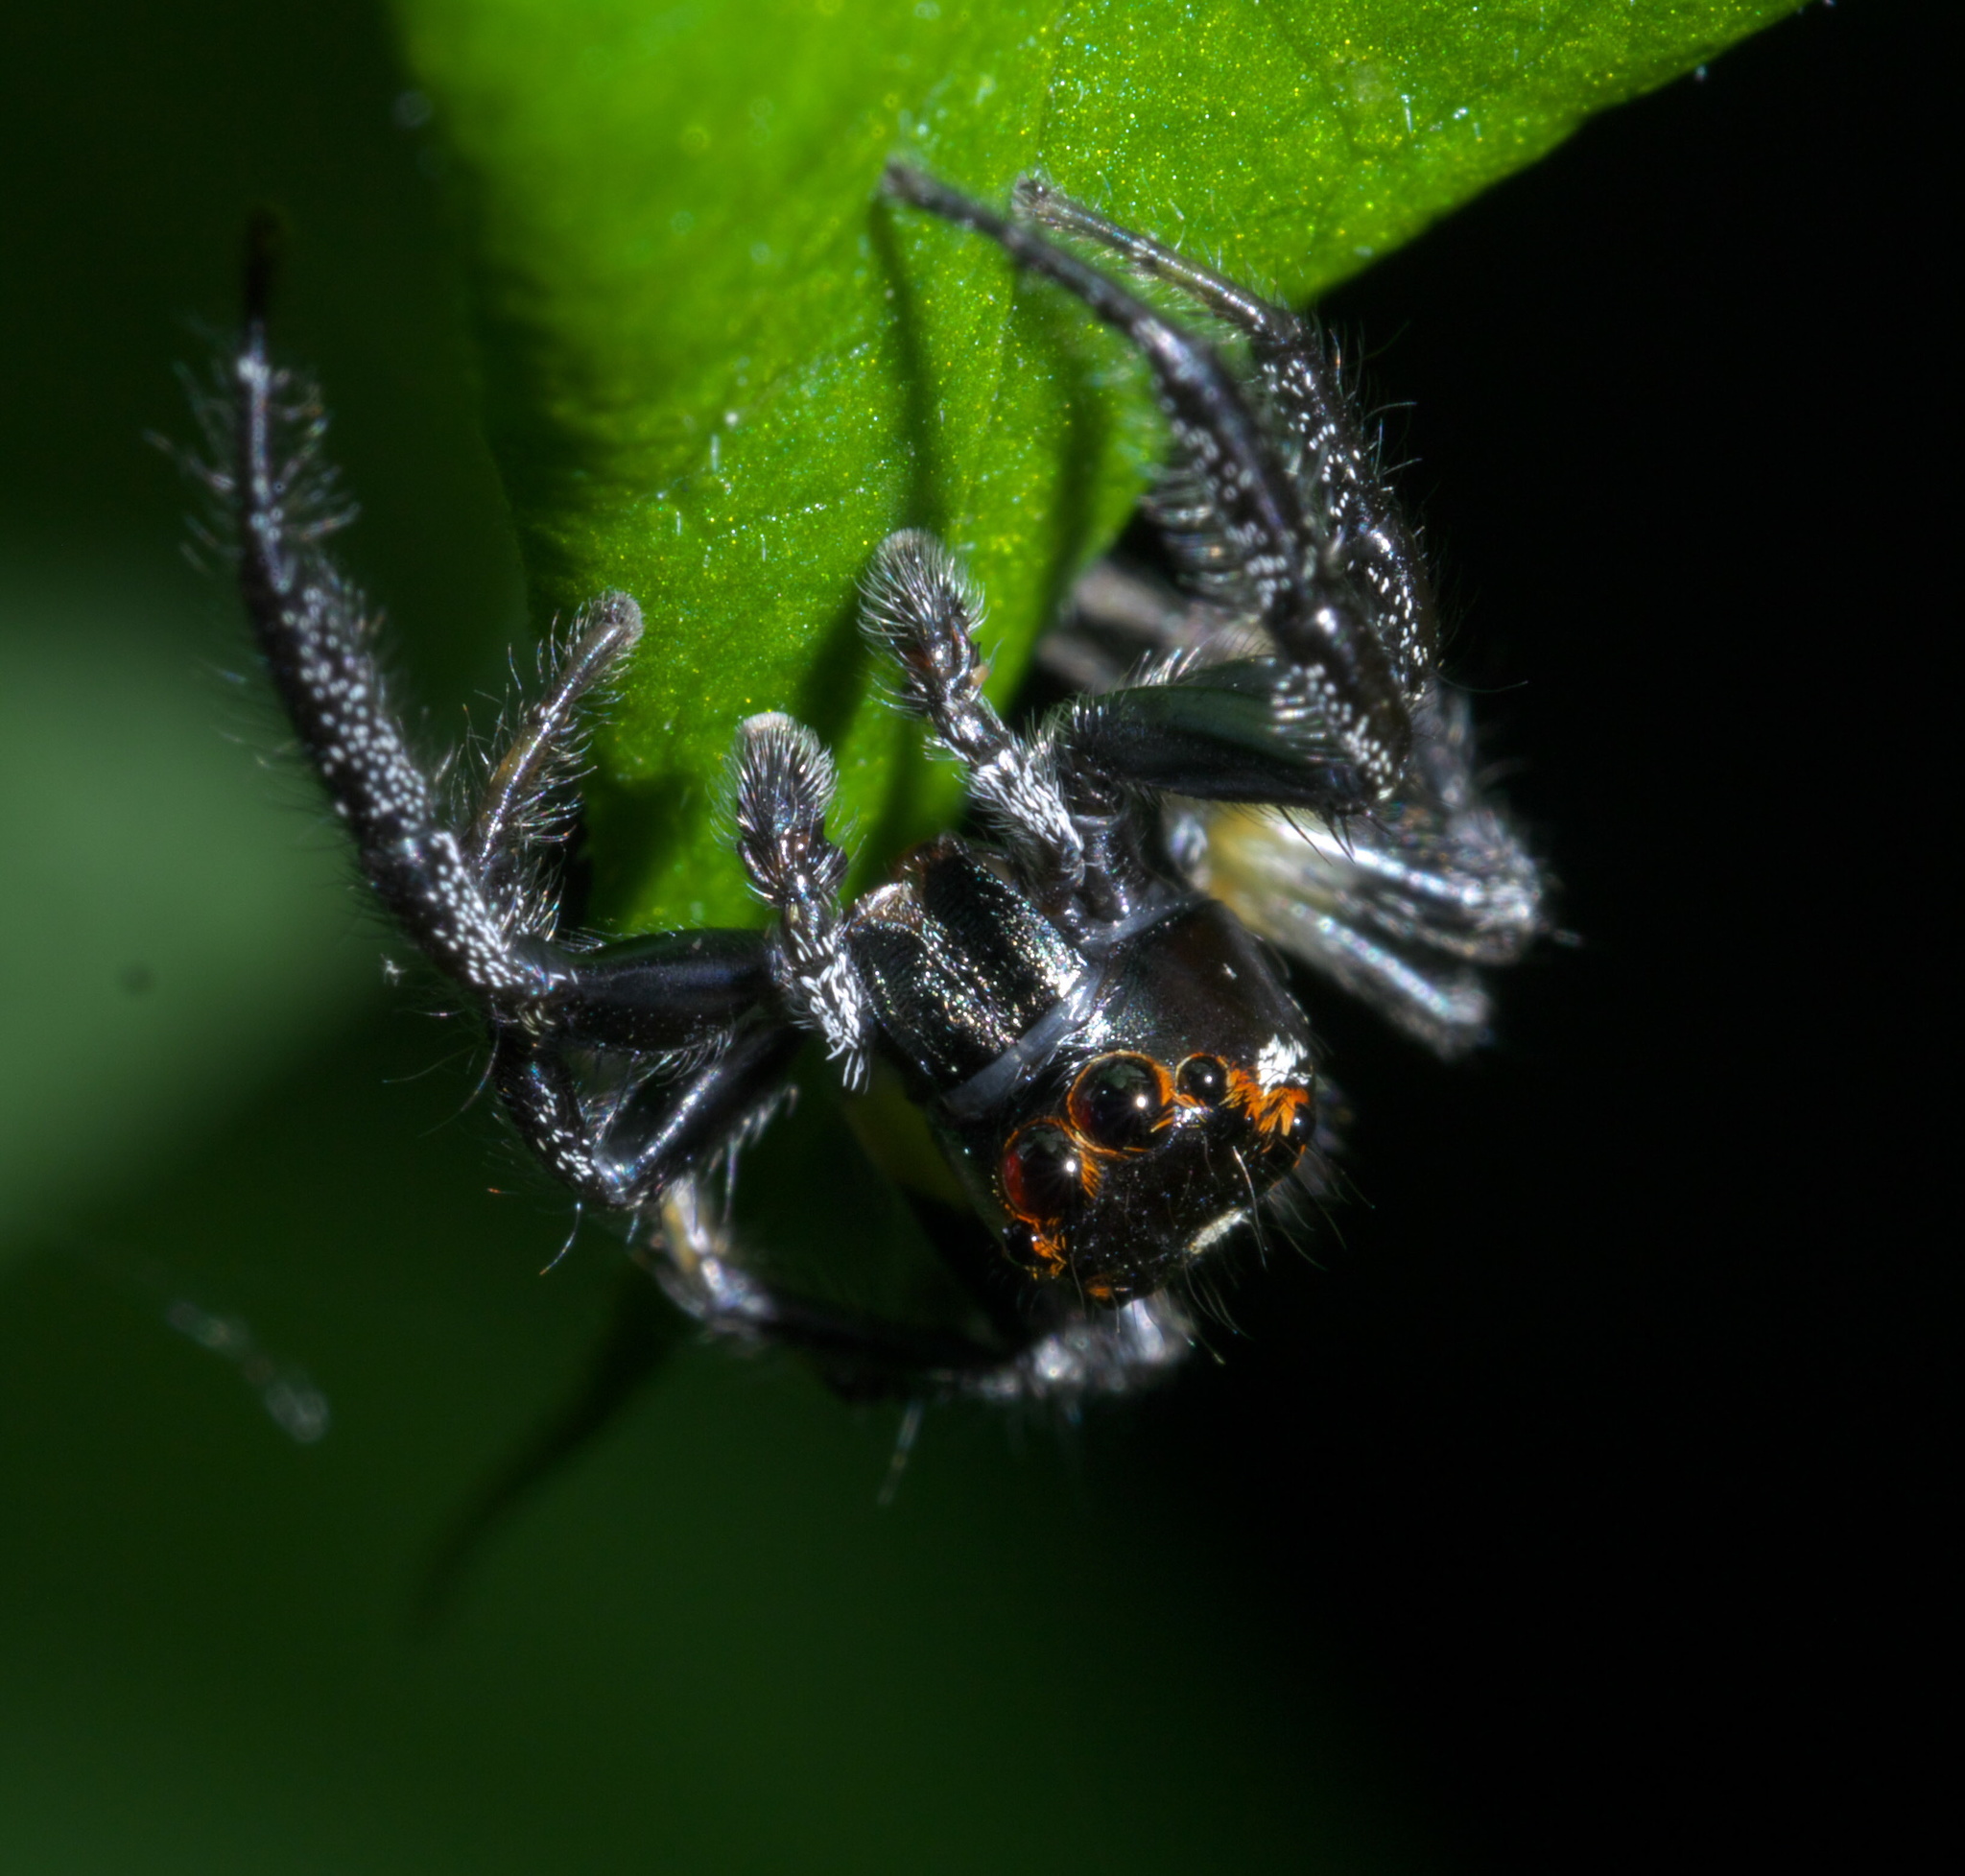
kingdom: Animalia
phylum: Arthropoda
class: Arachnida
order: Araneae
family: Salticidae
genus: Colonus
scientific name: Colonus sylvanus
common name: Jumping spiders
